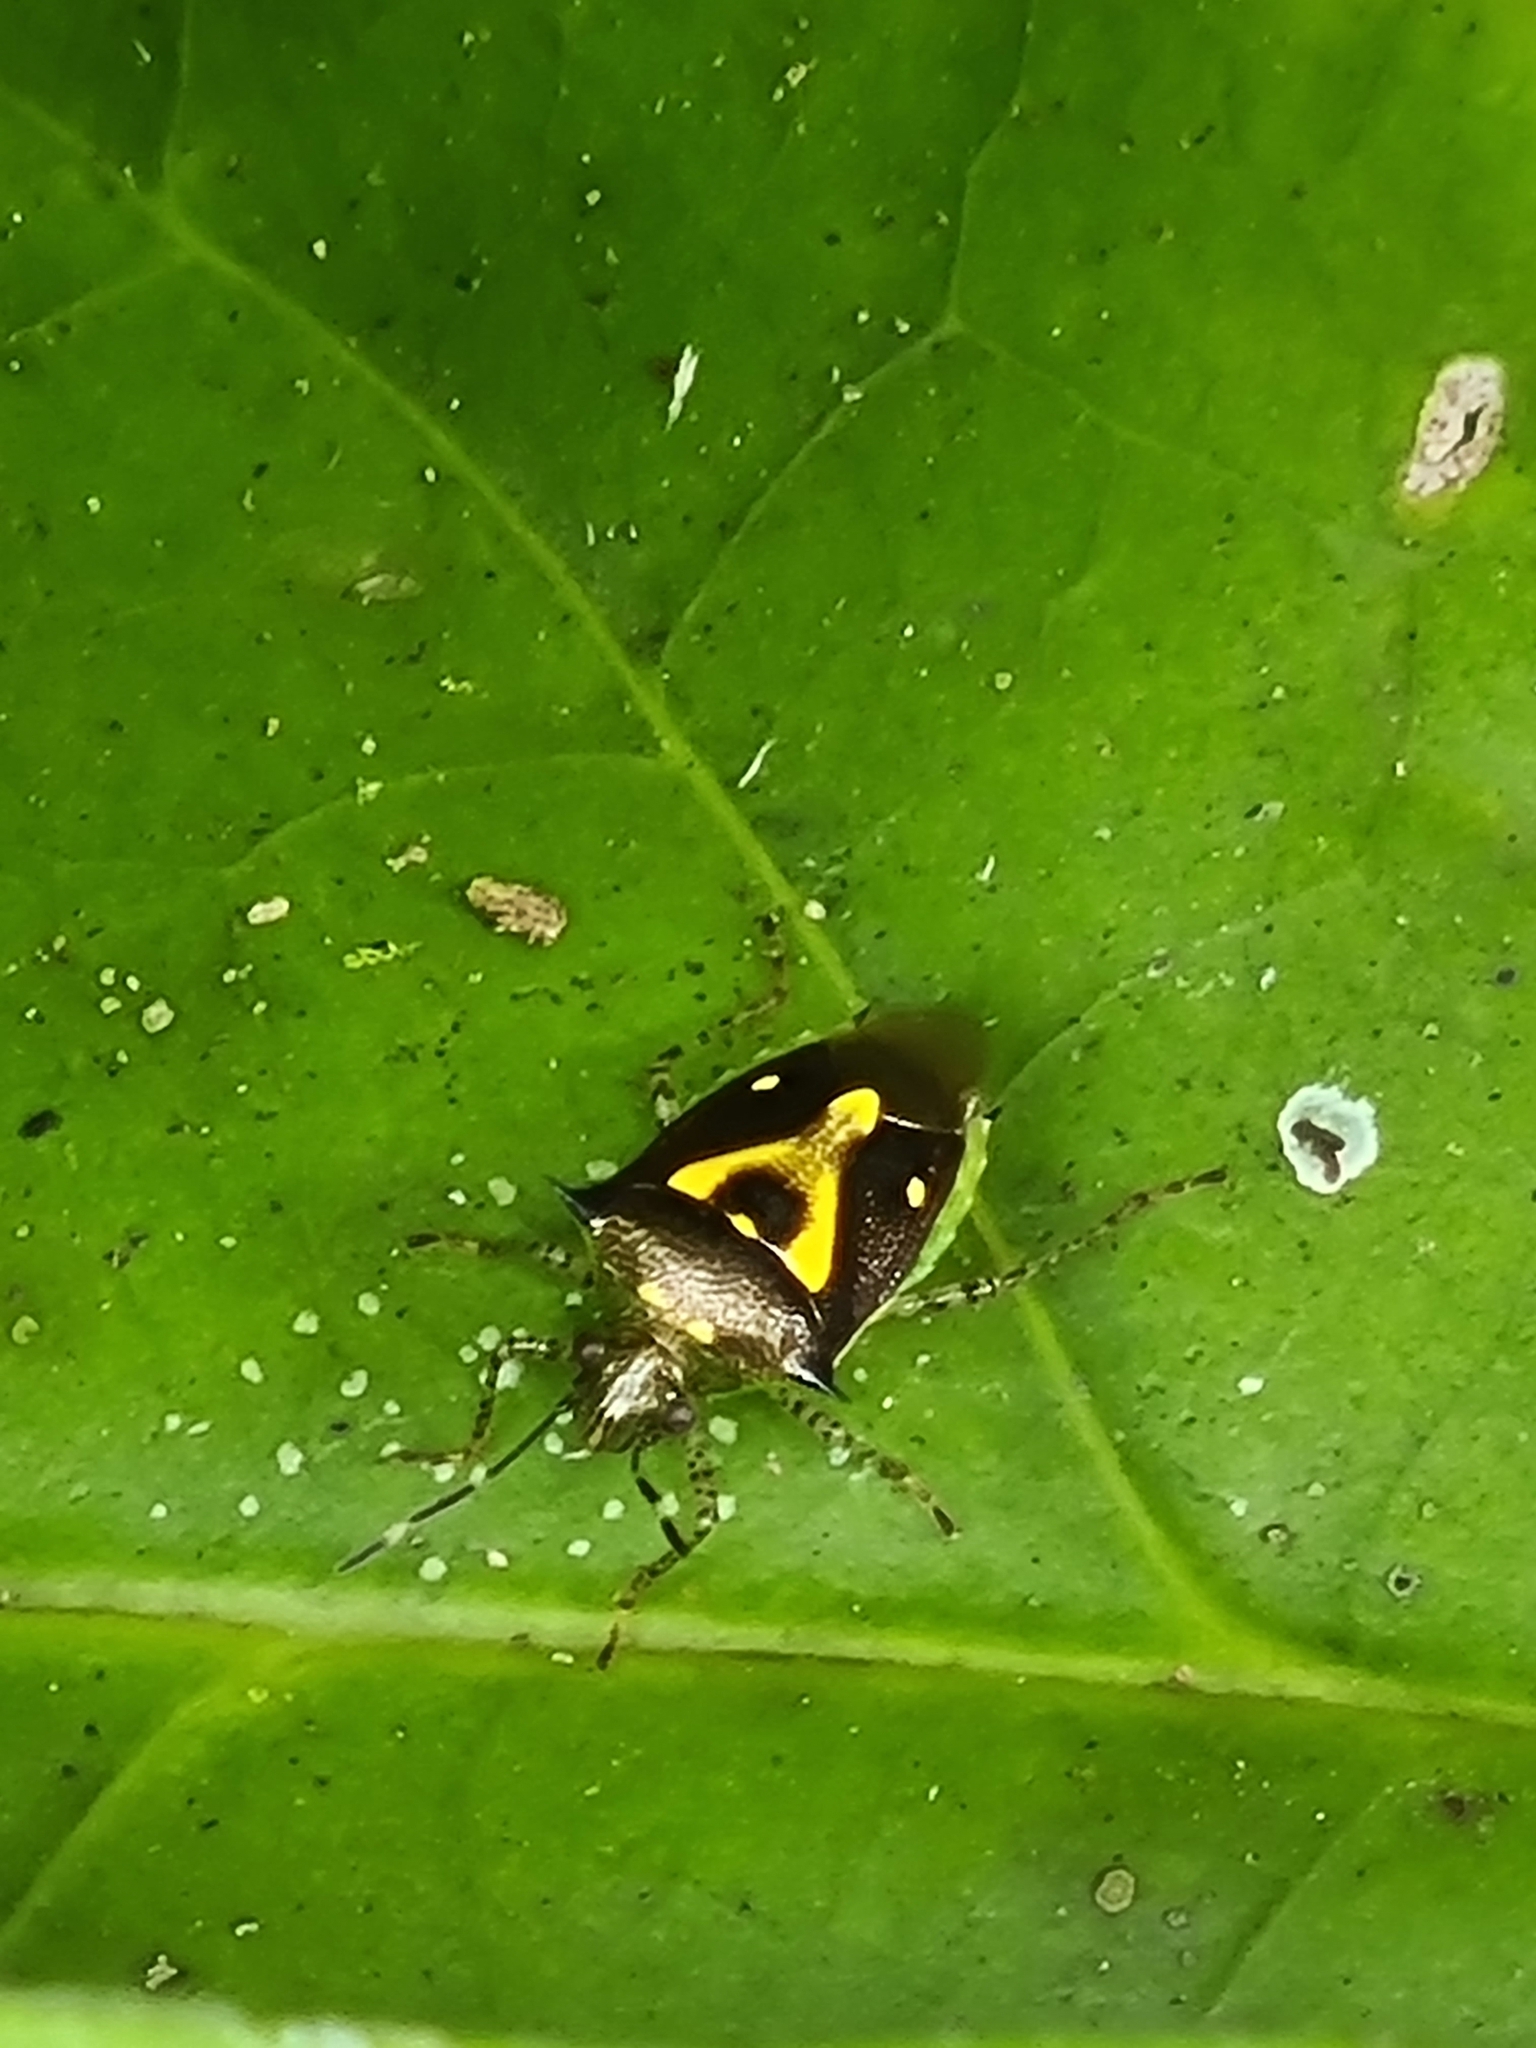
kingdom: Animalia
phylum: Arthropoda
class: Insecta
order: Hemiptera
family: Pentatomidae
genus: Mormidea
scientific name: Mormidea ypsilon
